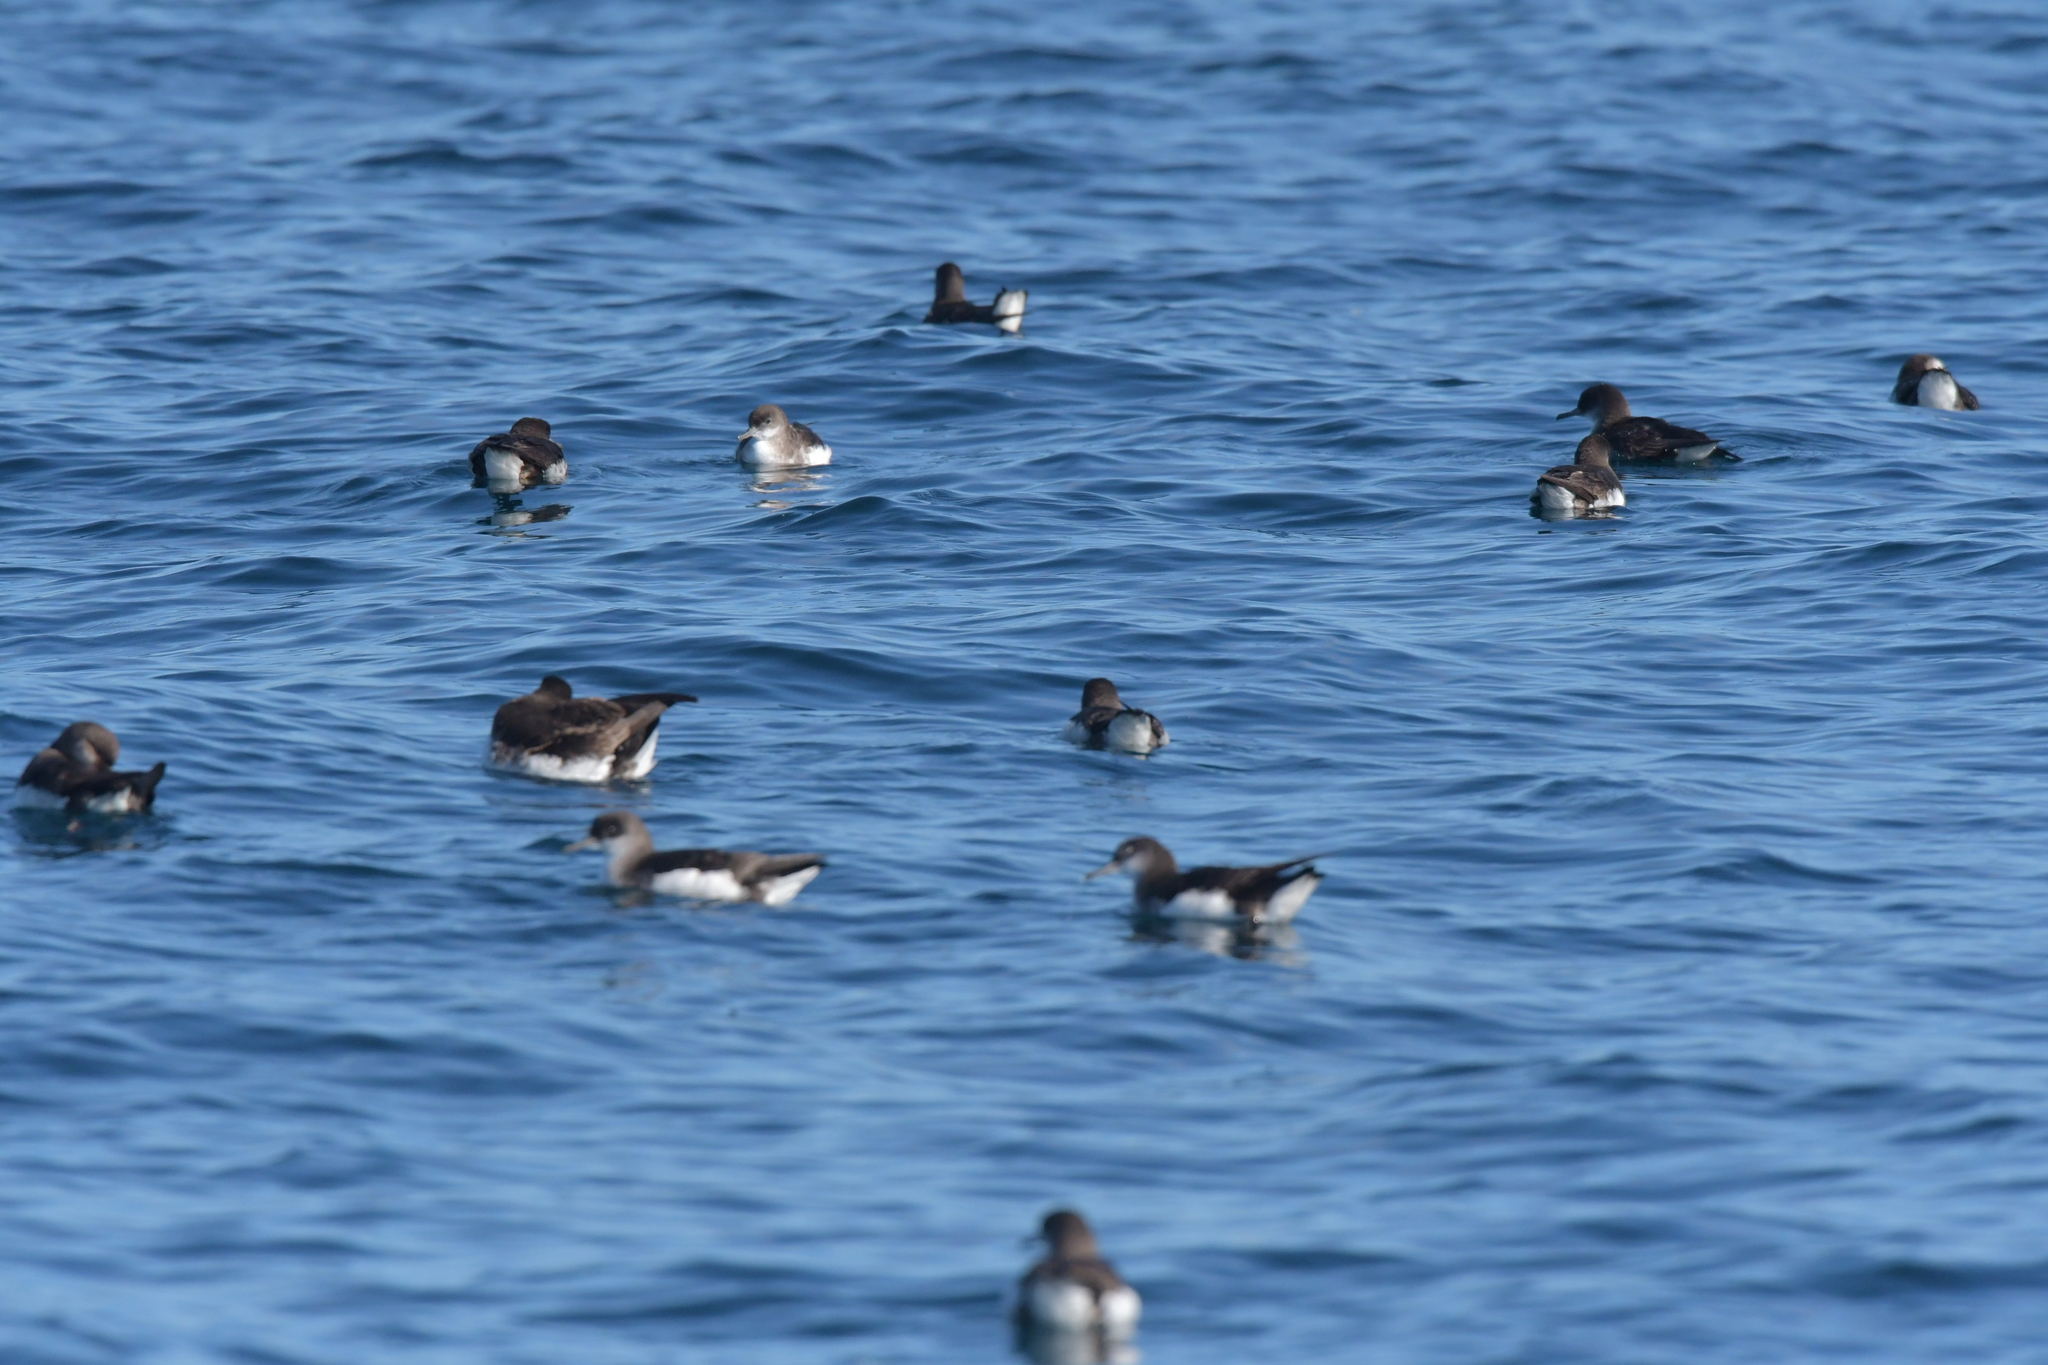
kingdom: Animalia
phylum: Chordata
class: Aves
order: Procellariiformes
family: Procellariidae
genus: Puffinus
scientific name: Puffinus gavia
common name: Fluttering shearwater
